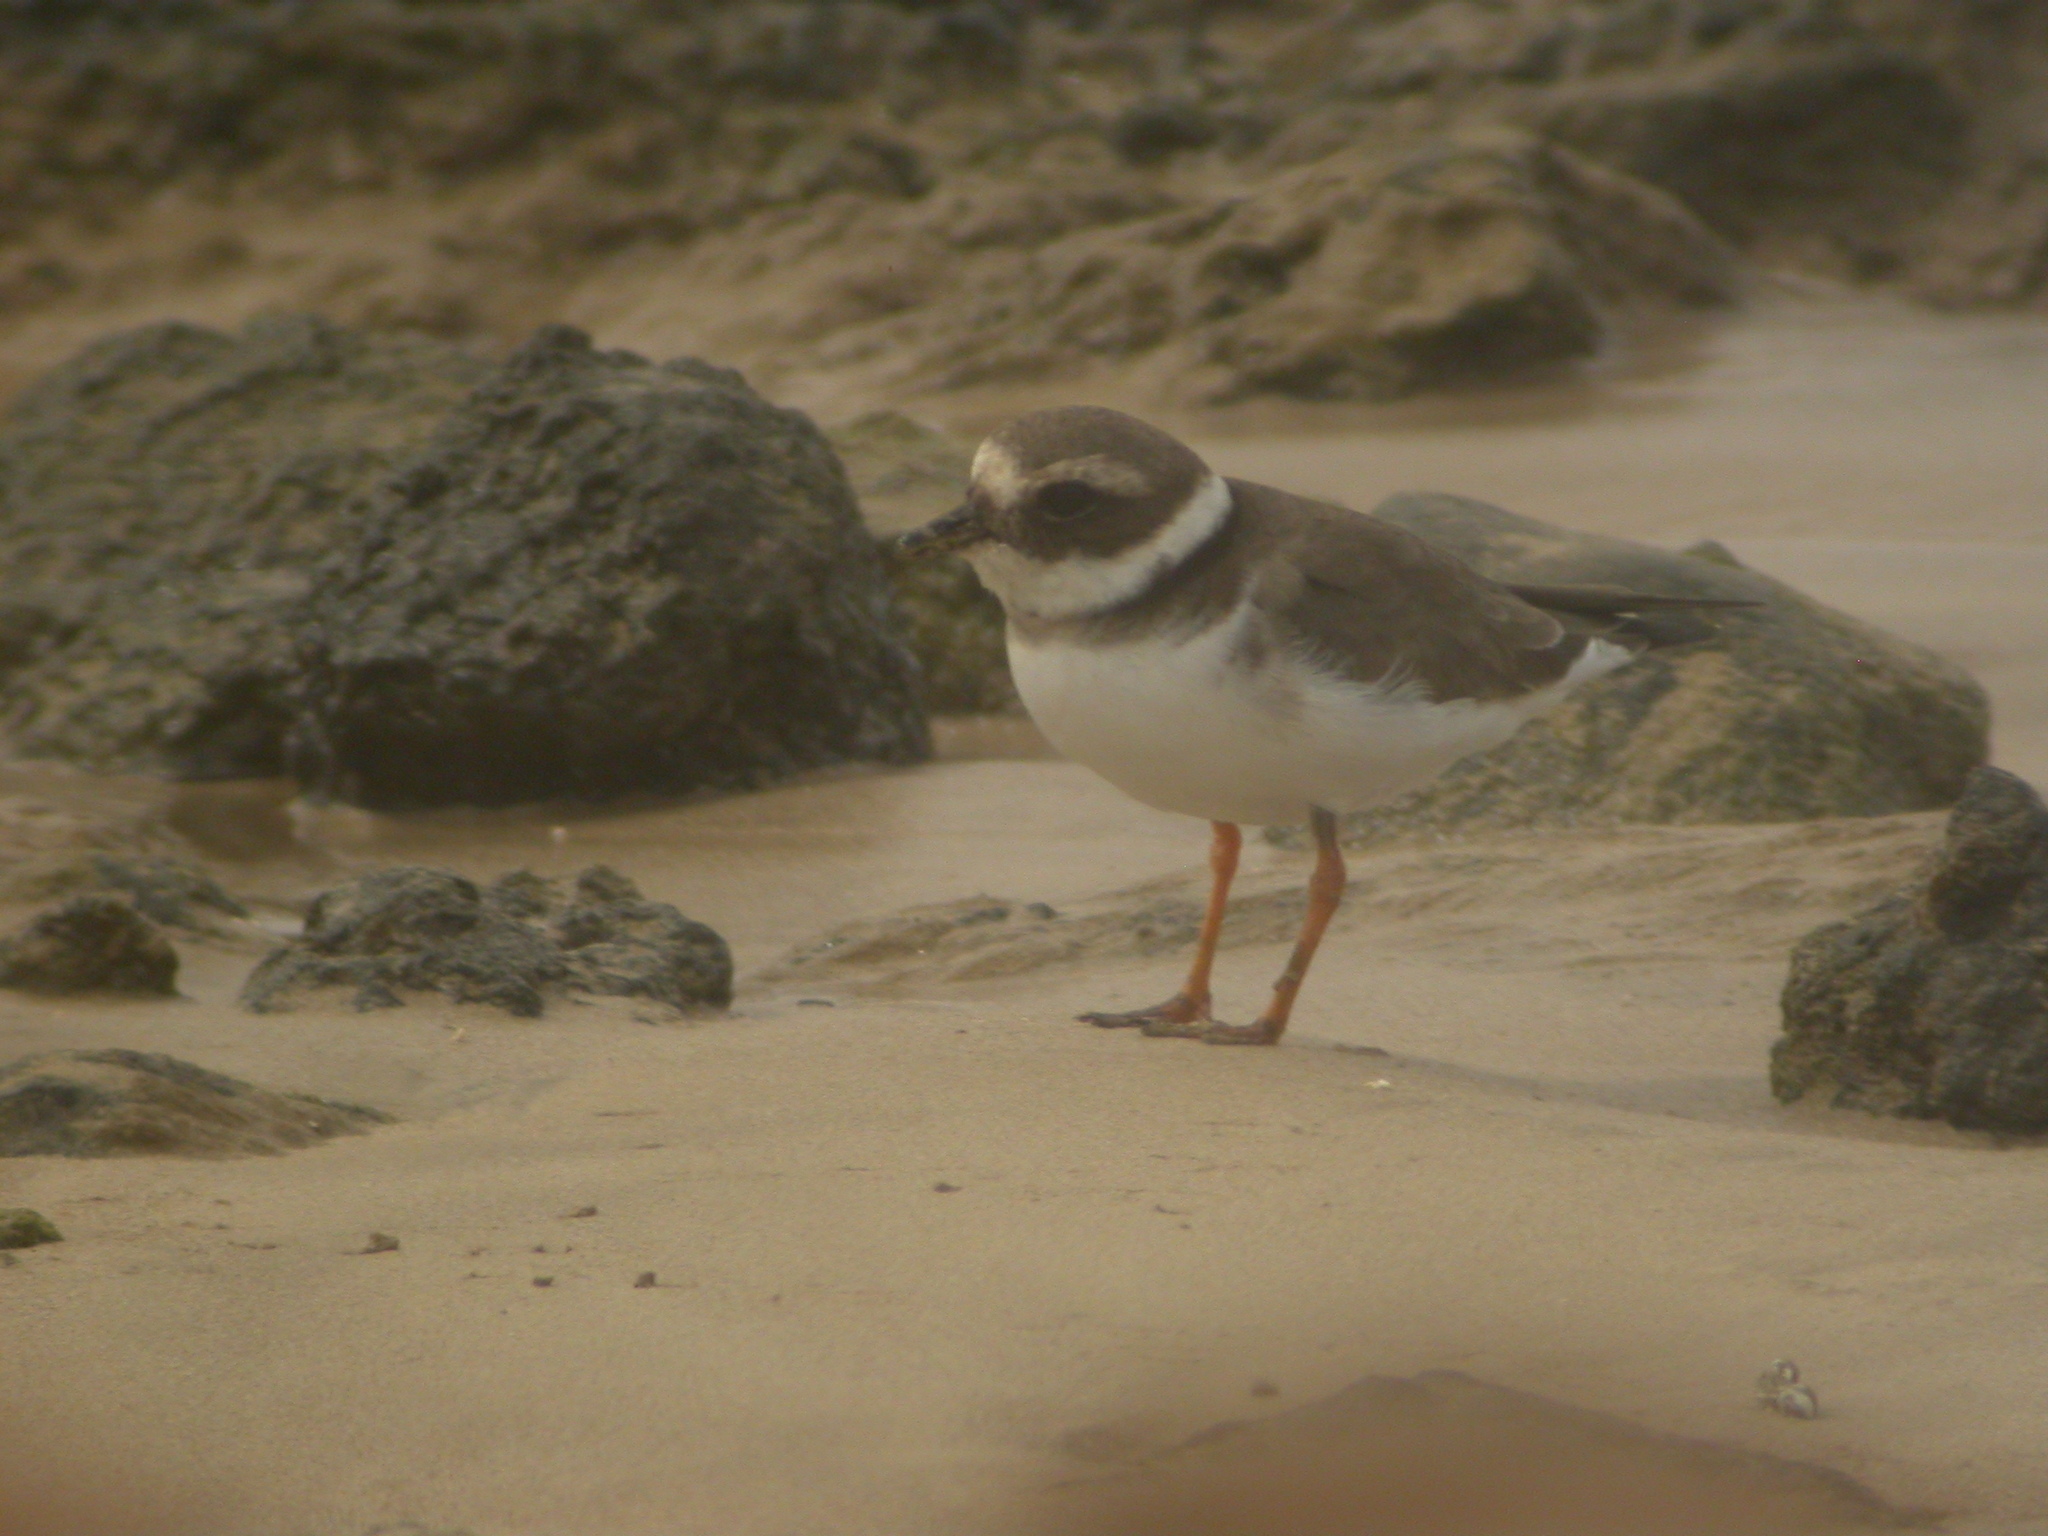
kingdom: Animalia
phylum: Chordata
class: Aves
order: Charadriiformes
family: Charadriidae
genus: Charadrius
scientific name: Charadrius hiaticula
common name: Common ringed plover
